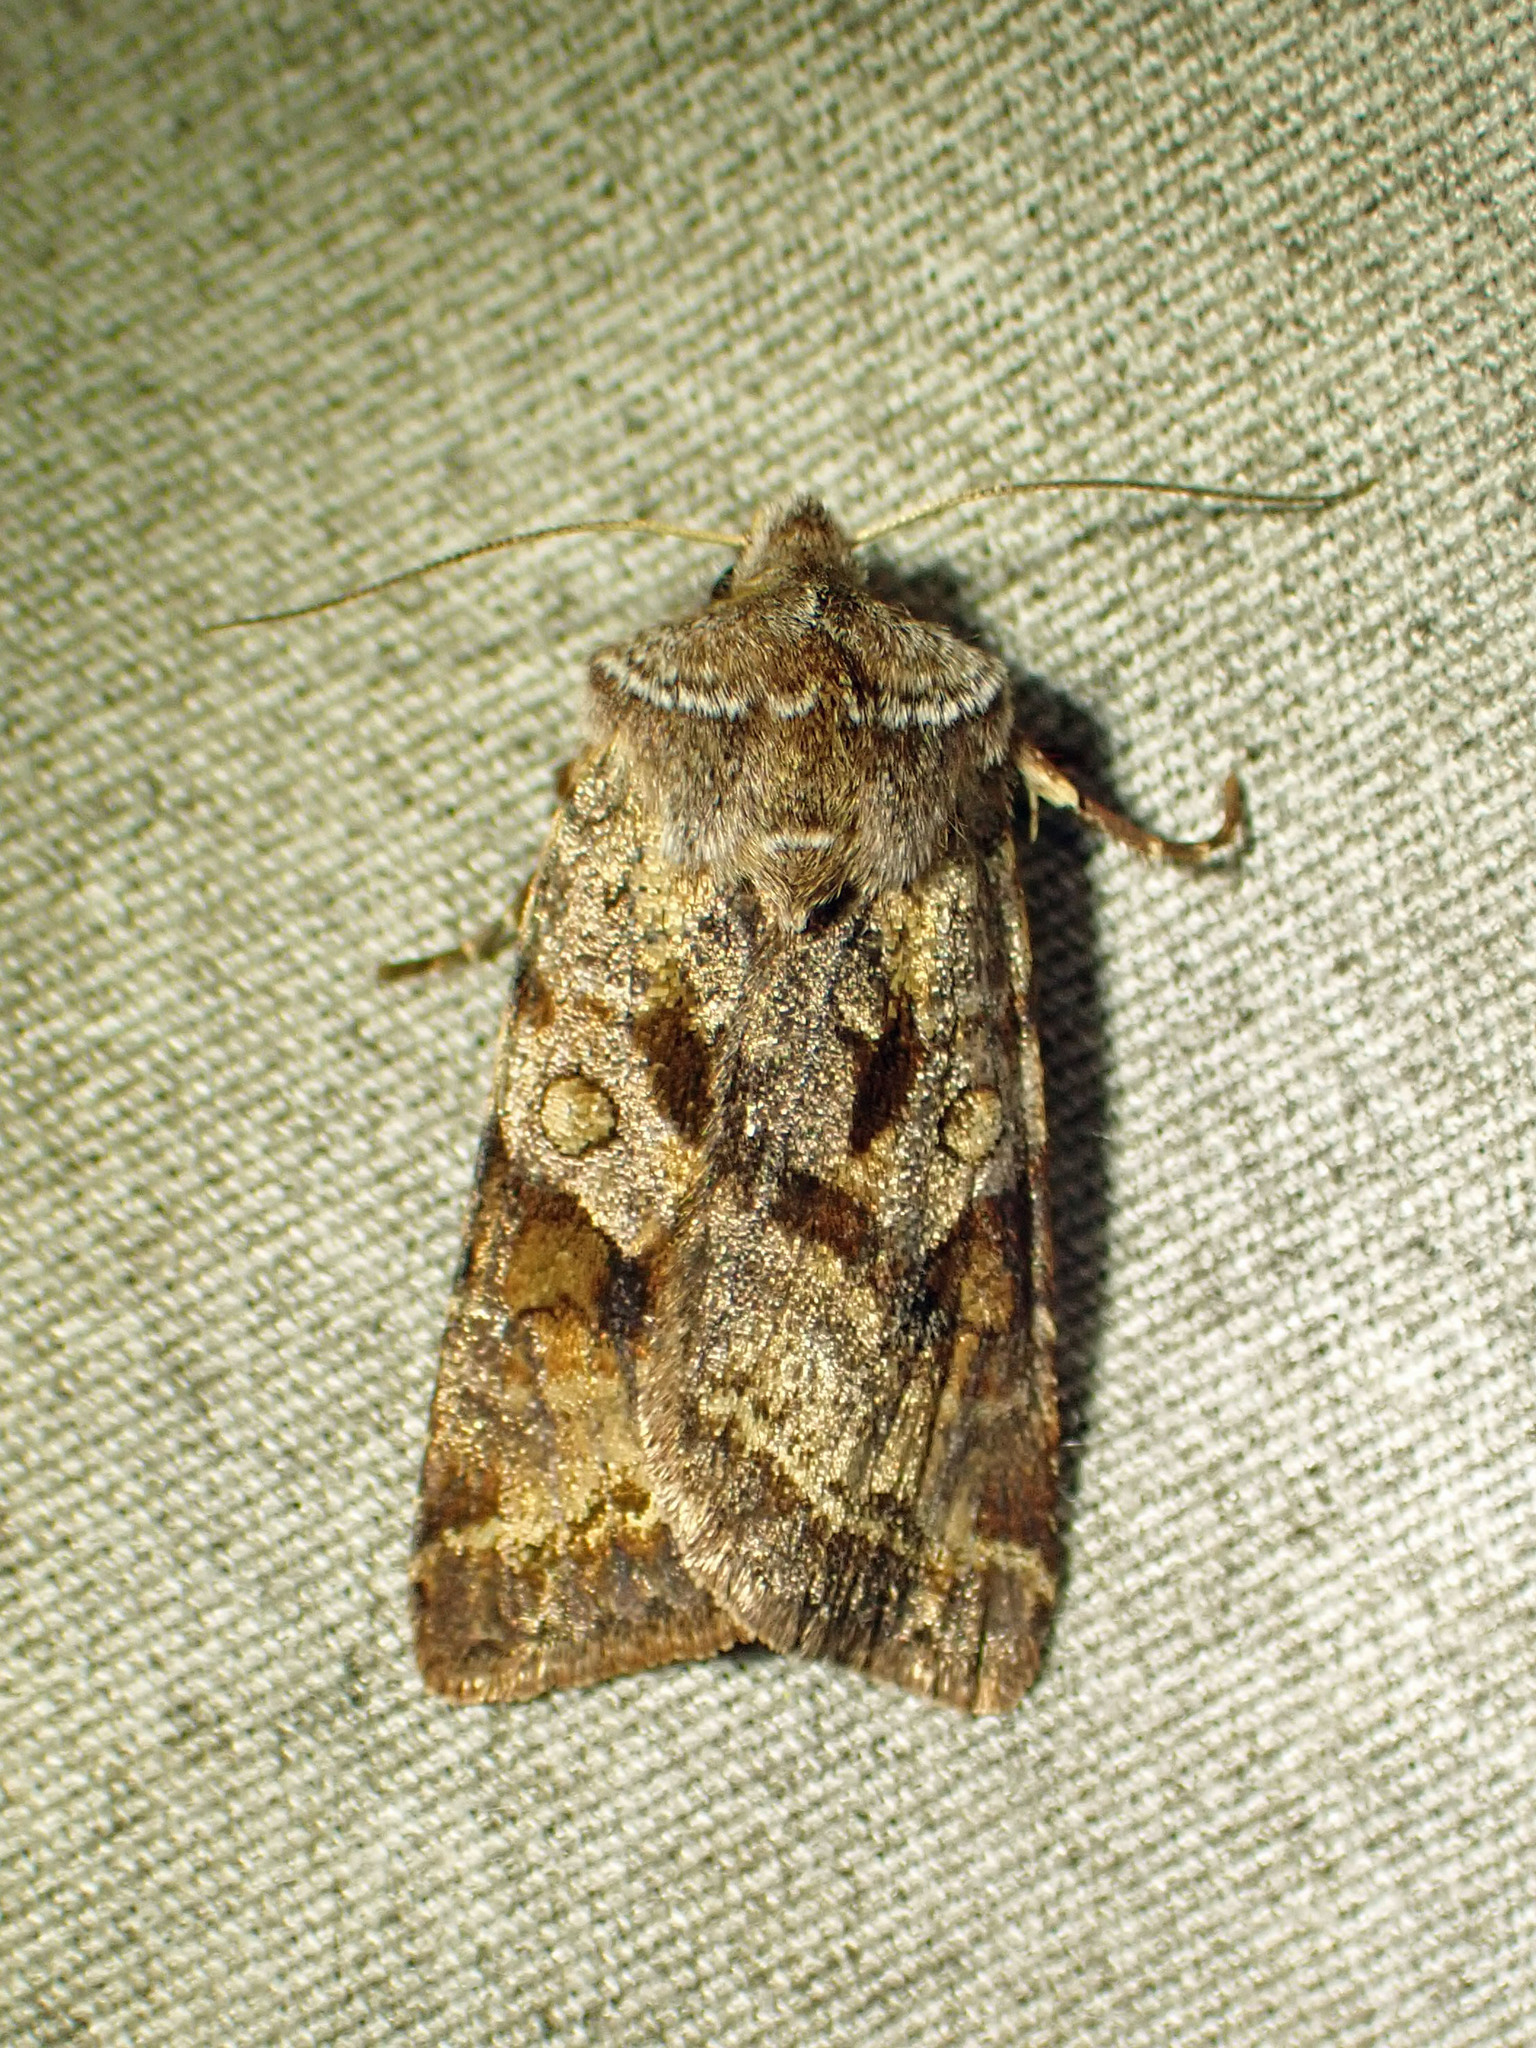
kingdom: Animalia
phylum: Arthropoda
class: Insecta
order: Lepidoptera
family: Noctuidae
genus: Cerastis
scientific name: Cerastis salicarum
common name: Willow dart
